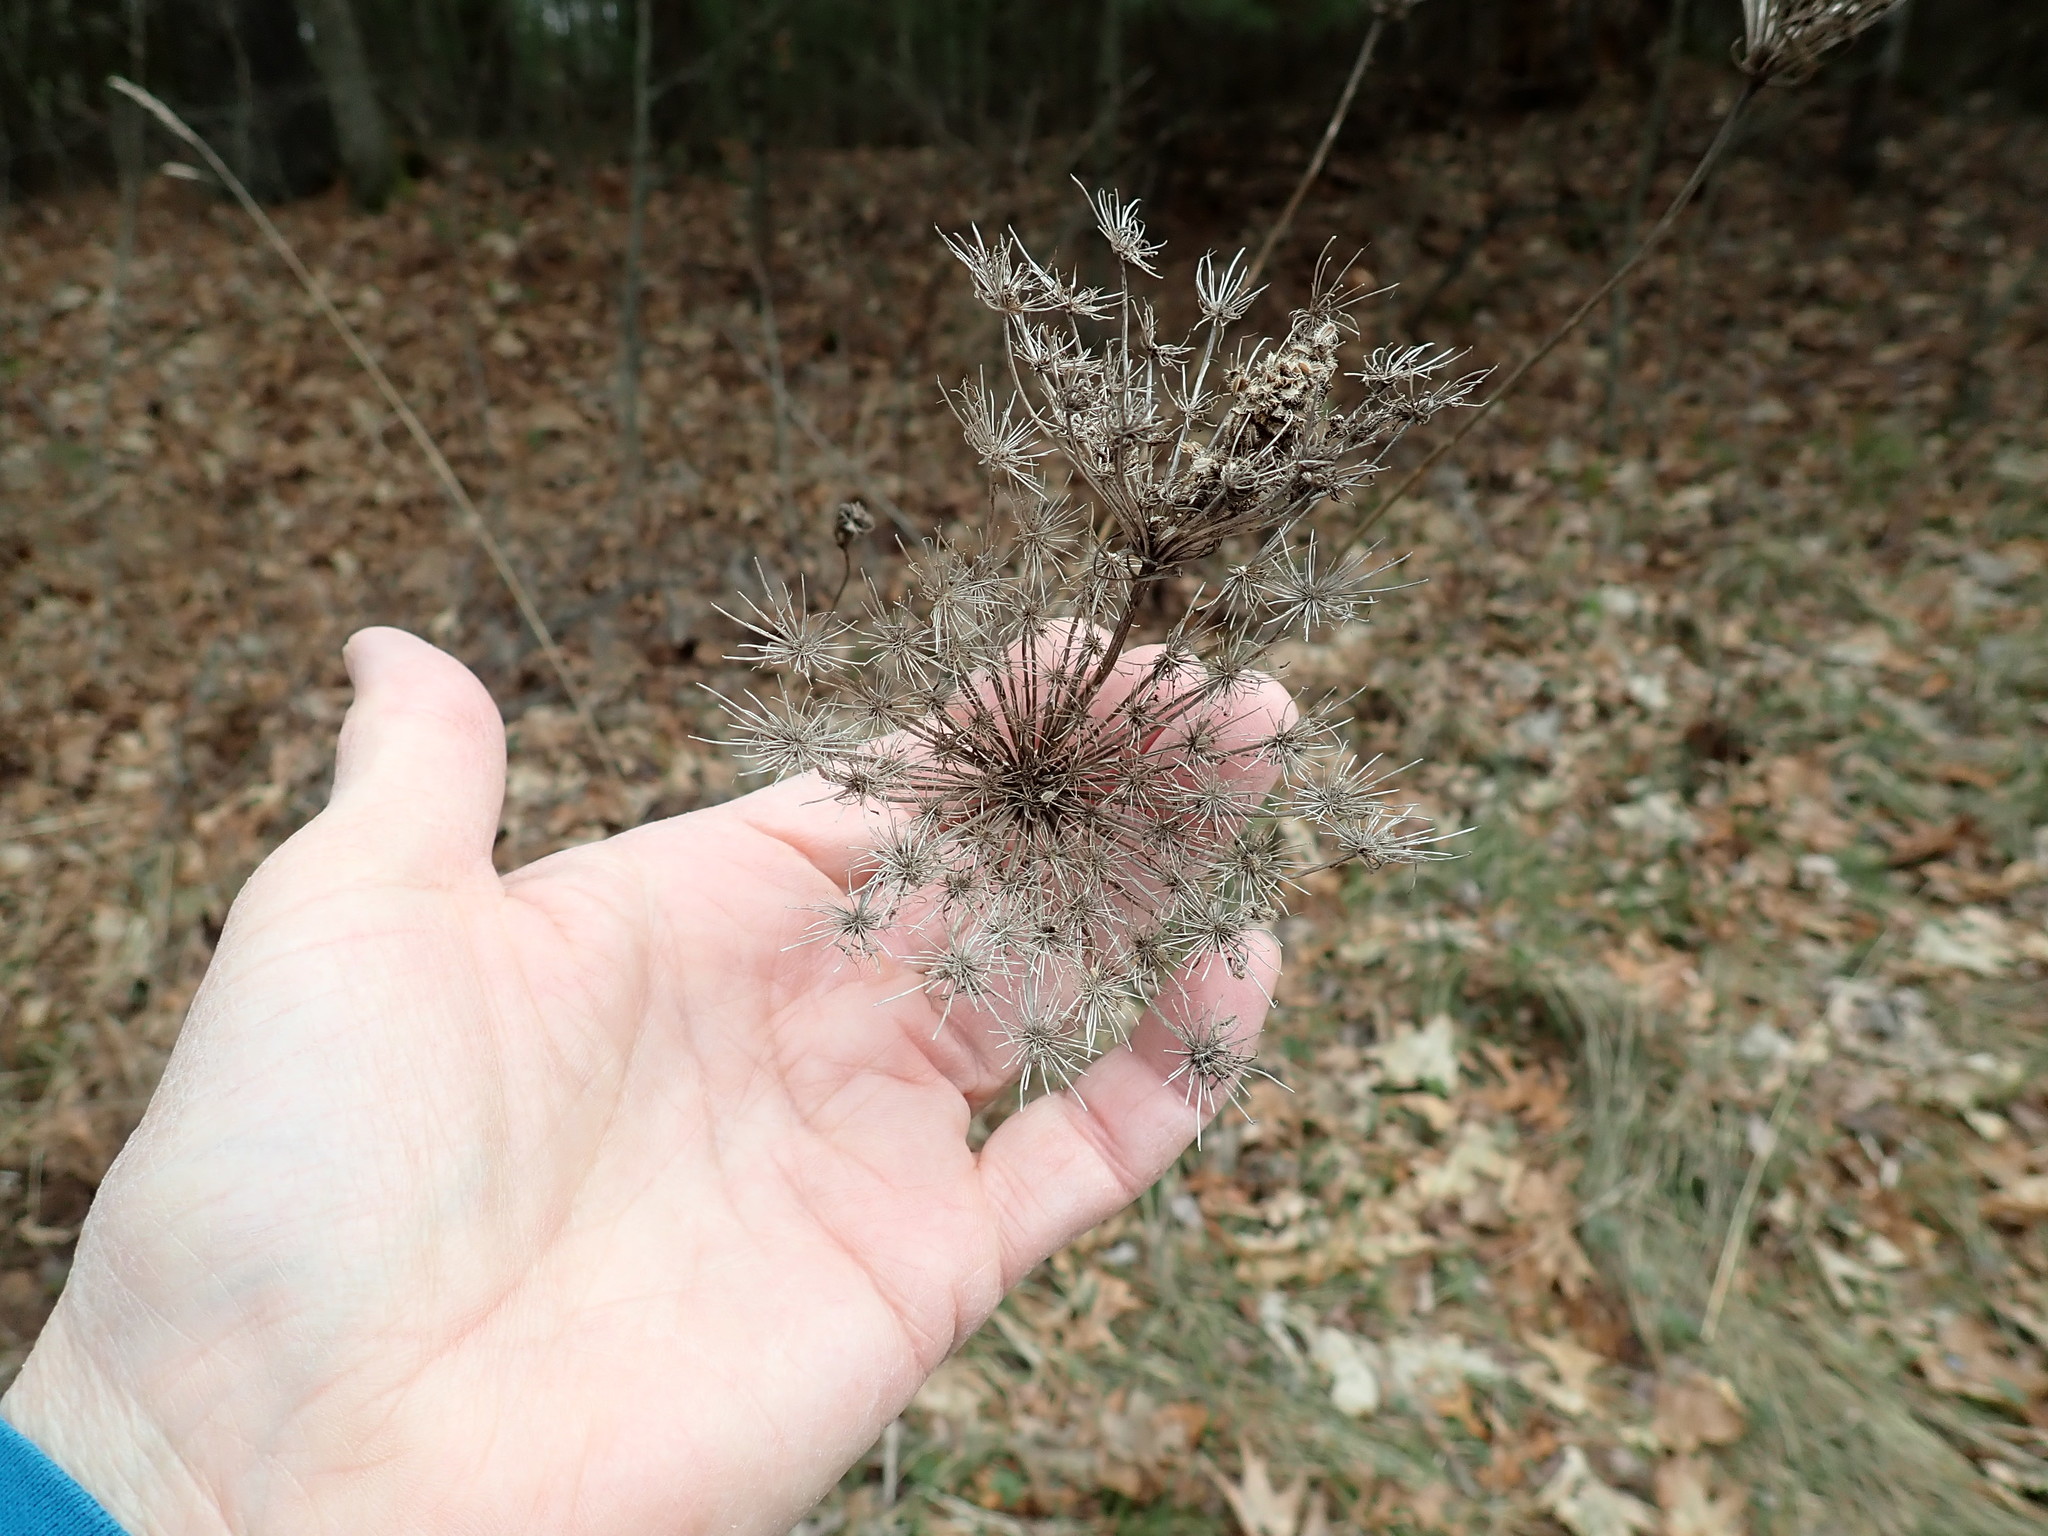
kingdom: Plantae
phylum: Tracheophyta
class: Magnoliopsida
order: Apiales
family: Apiaceae
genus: Daucus
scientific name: Daucus carota
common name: Wild carrot
